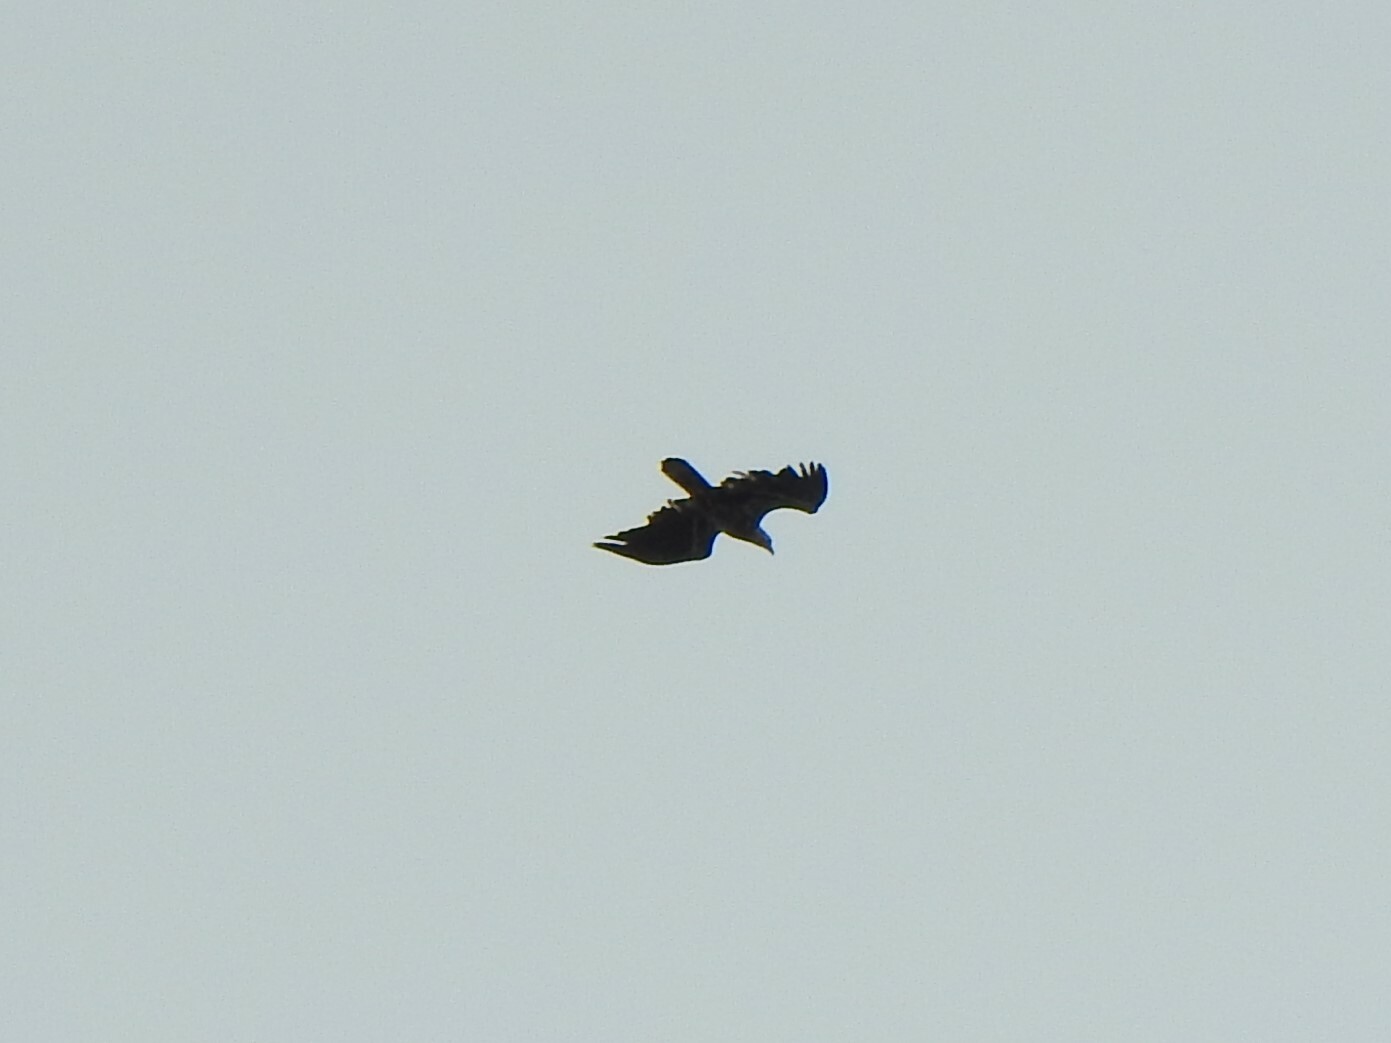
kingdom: Animalia
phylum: Chordata
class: Aves
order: Accipitriformes
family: Accipitridae
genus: Haliaeetus
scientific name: Haliaeetus leucocephalus
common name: Bald eagle
